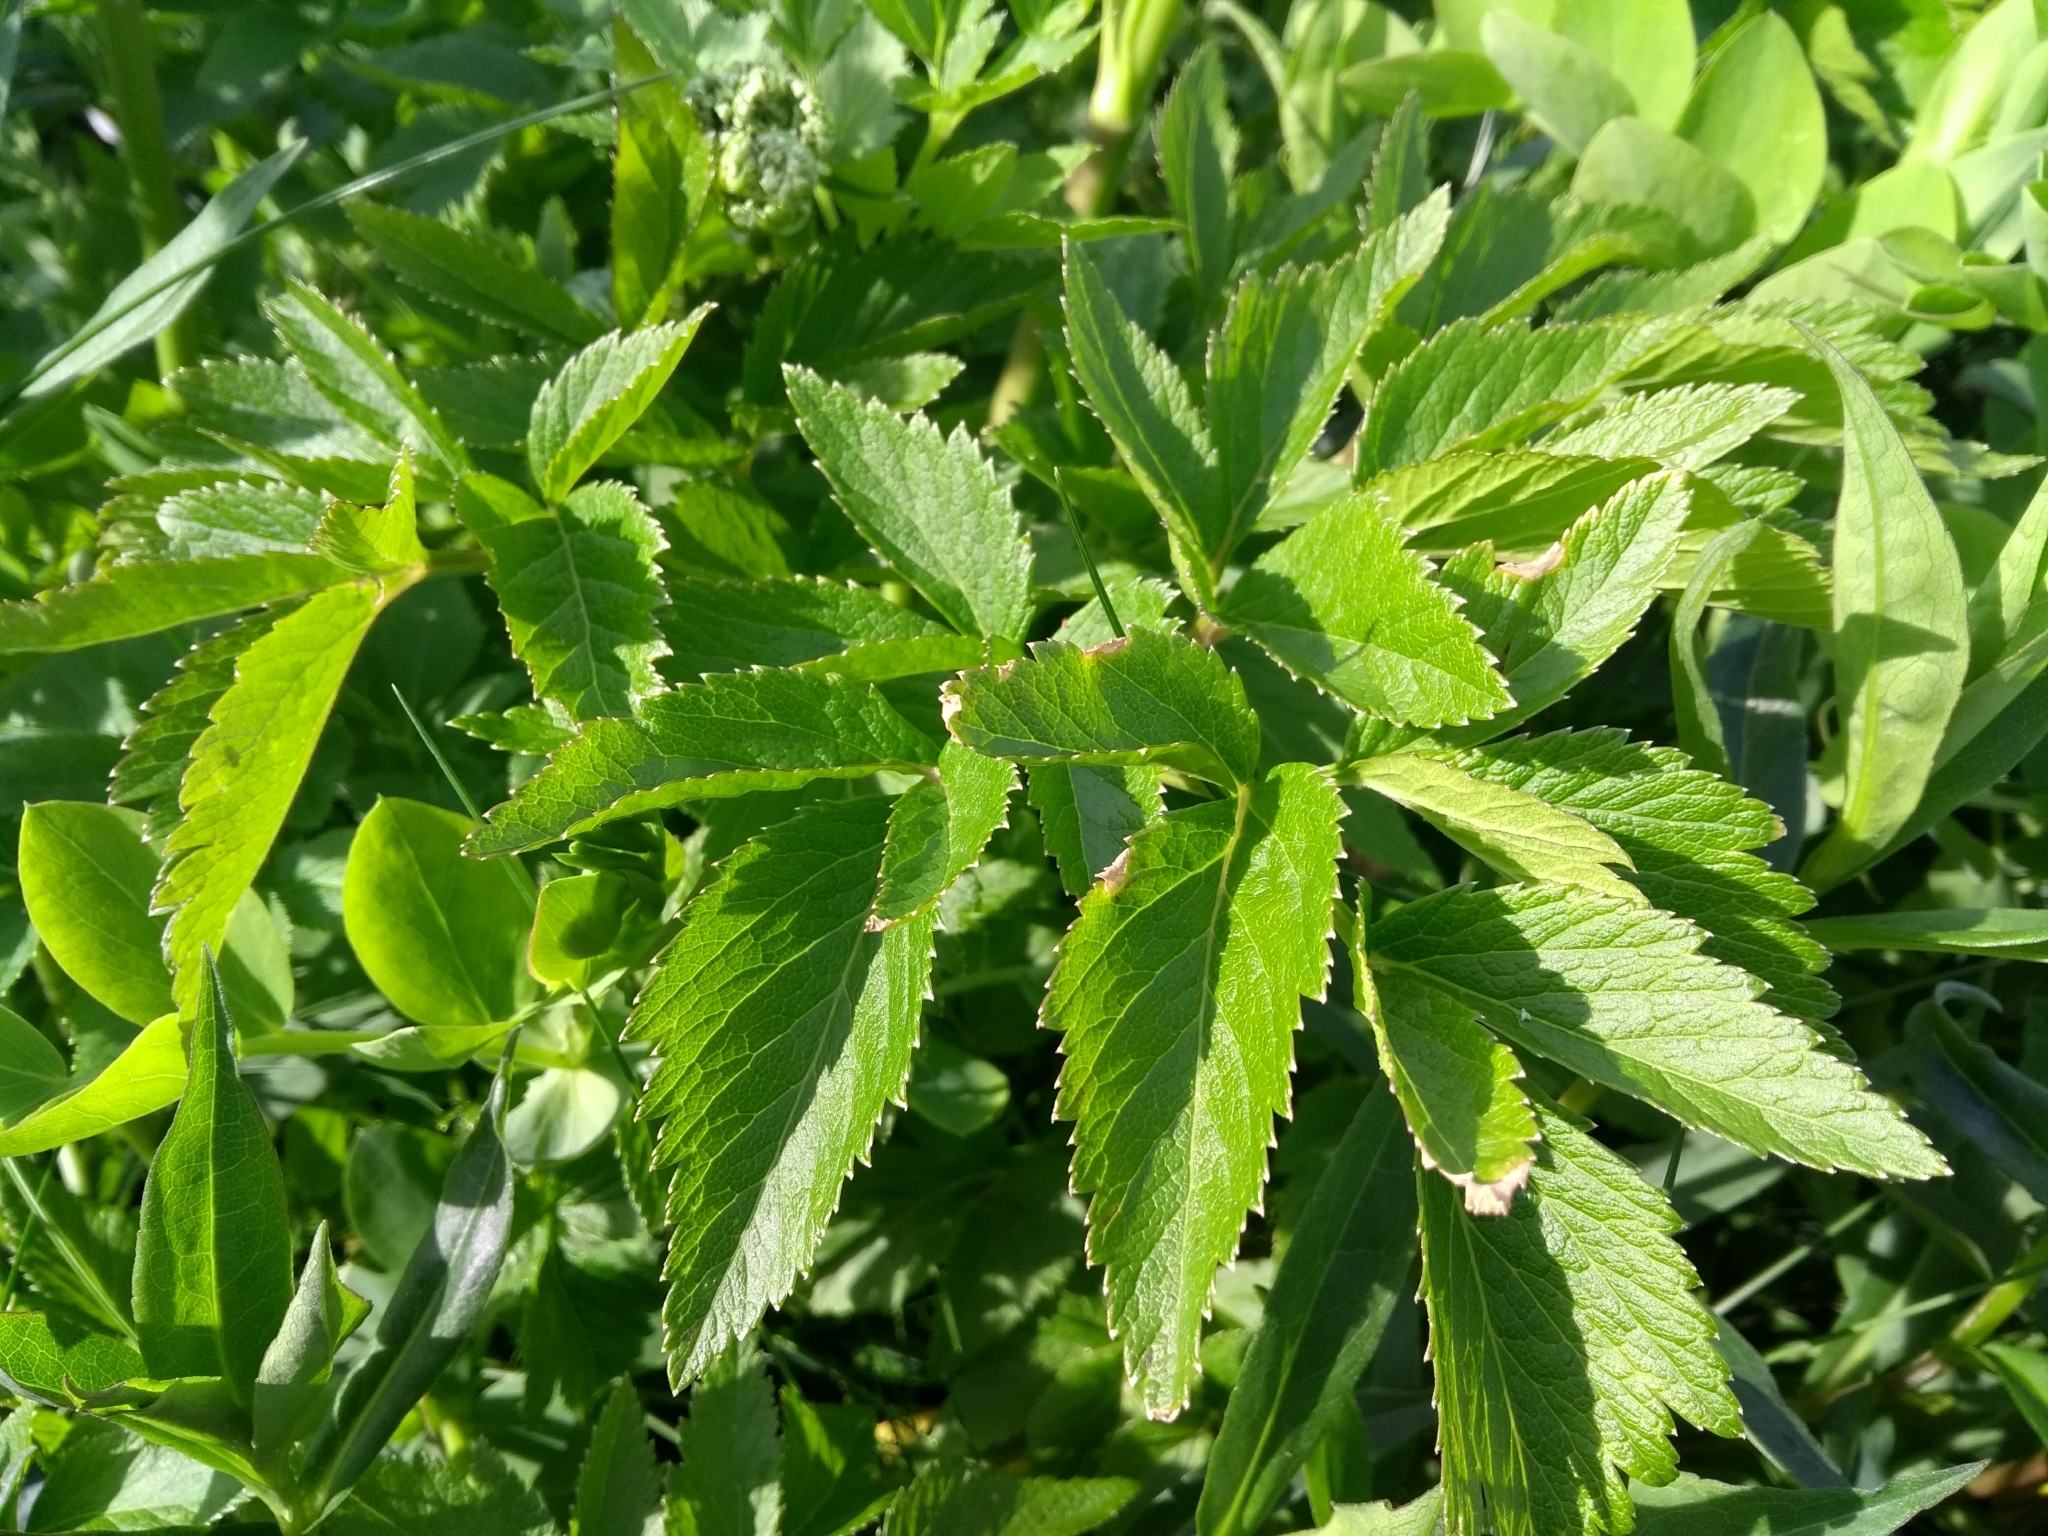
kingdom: Plantae
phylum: Tracheophyta
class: Magnoliopsida
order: Apiales
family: Apiaceae
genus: Angelica
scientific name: Angelica lucida
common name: Seabeach angelica
